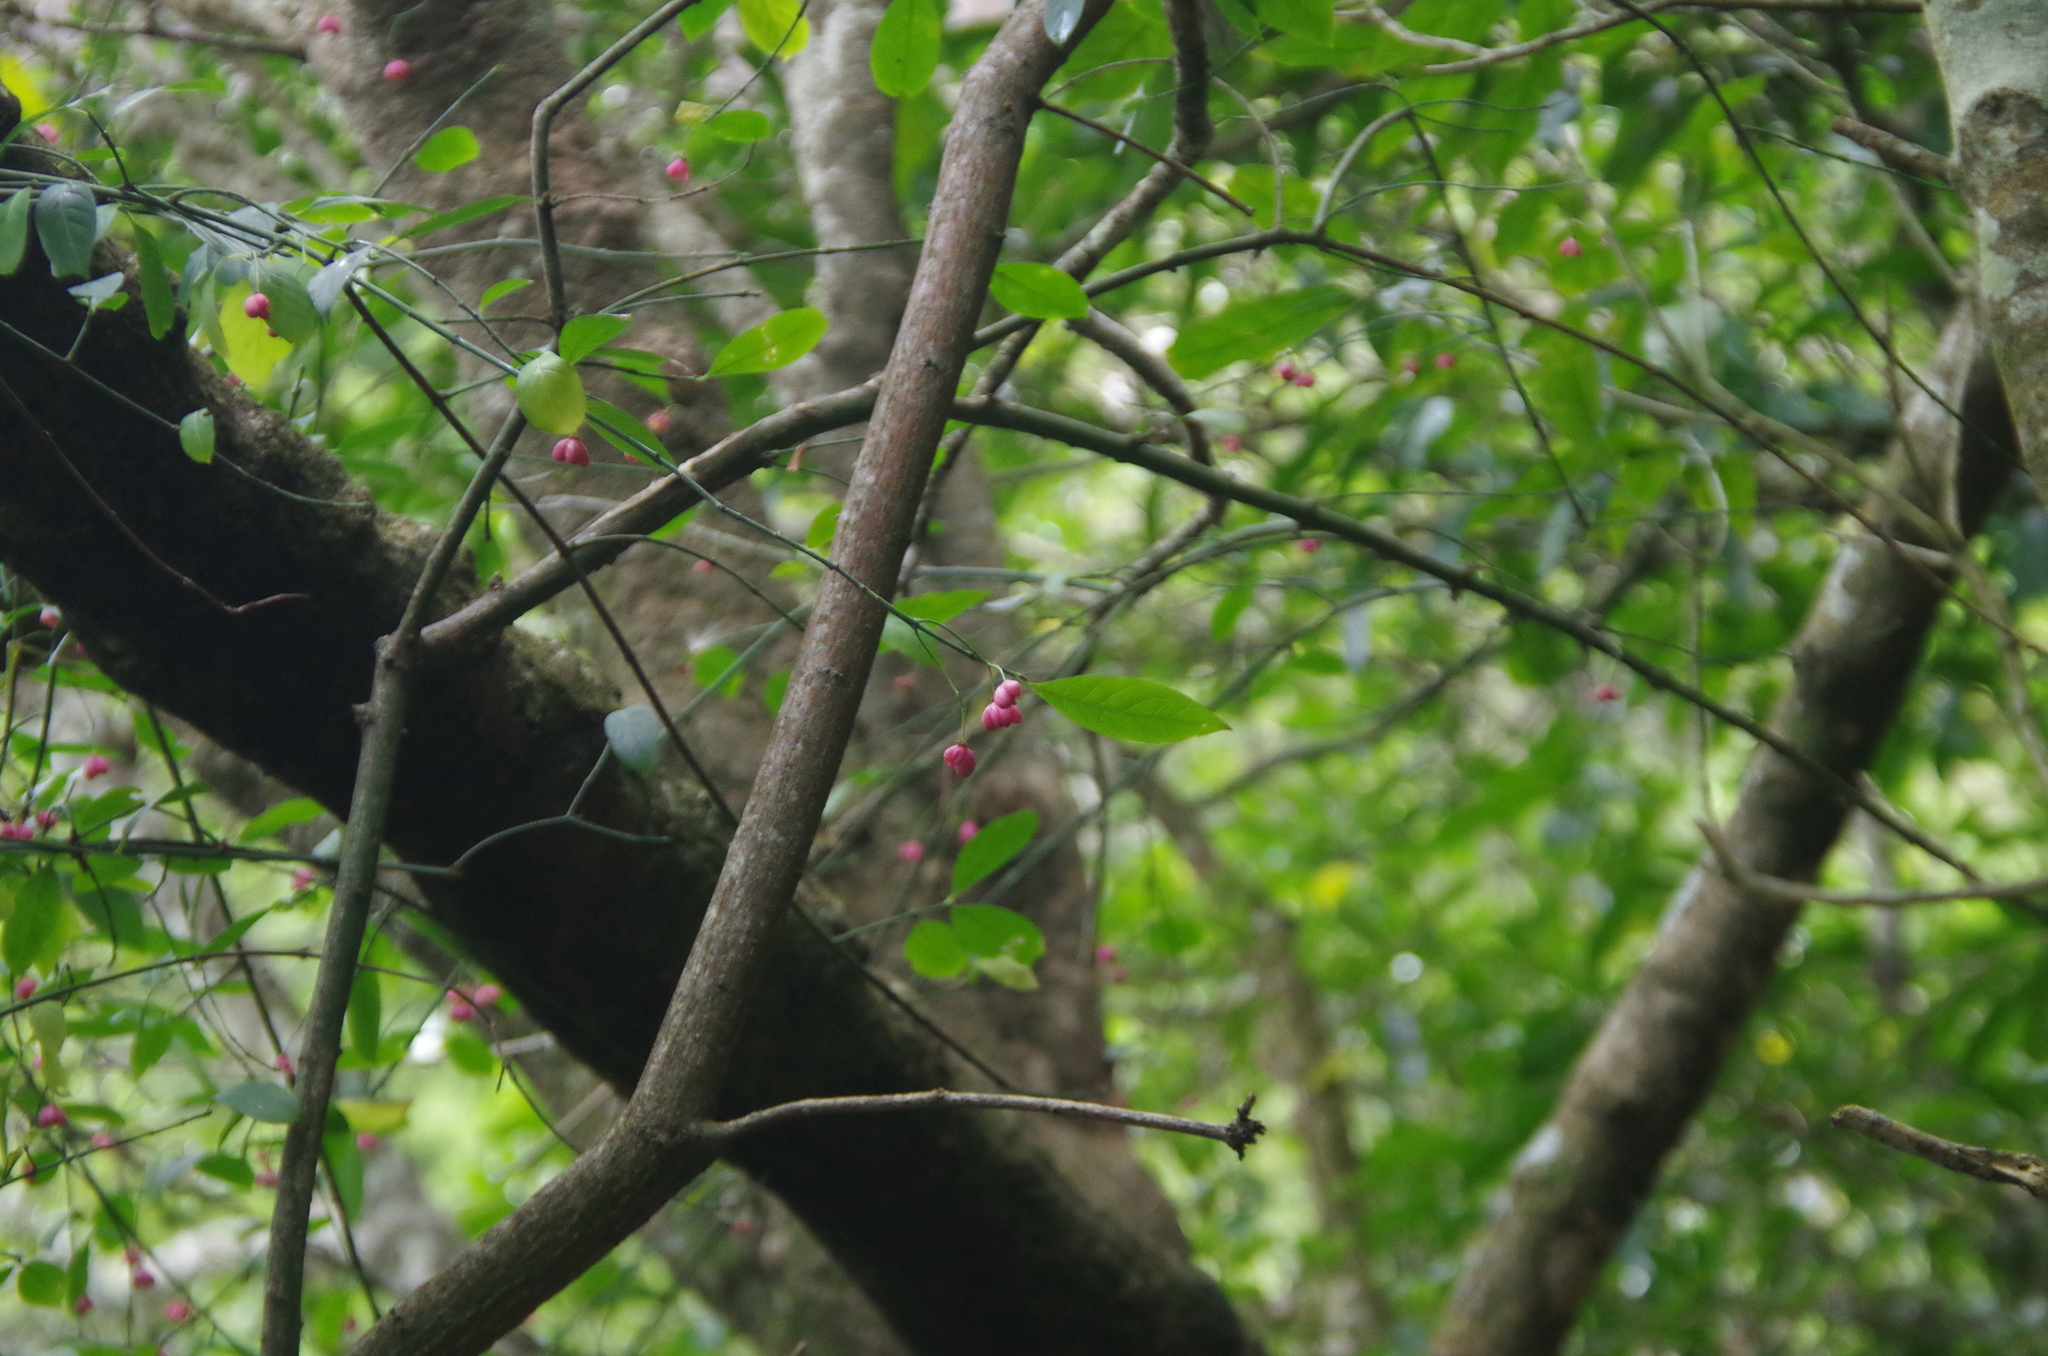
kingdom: Plantae
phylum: Tracheophyta
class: Magnoliopsida
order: Celastrales
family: Celastraceae
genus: Euonymus
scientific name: Euonymus europaeus
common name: Spindle
